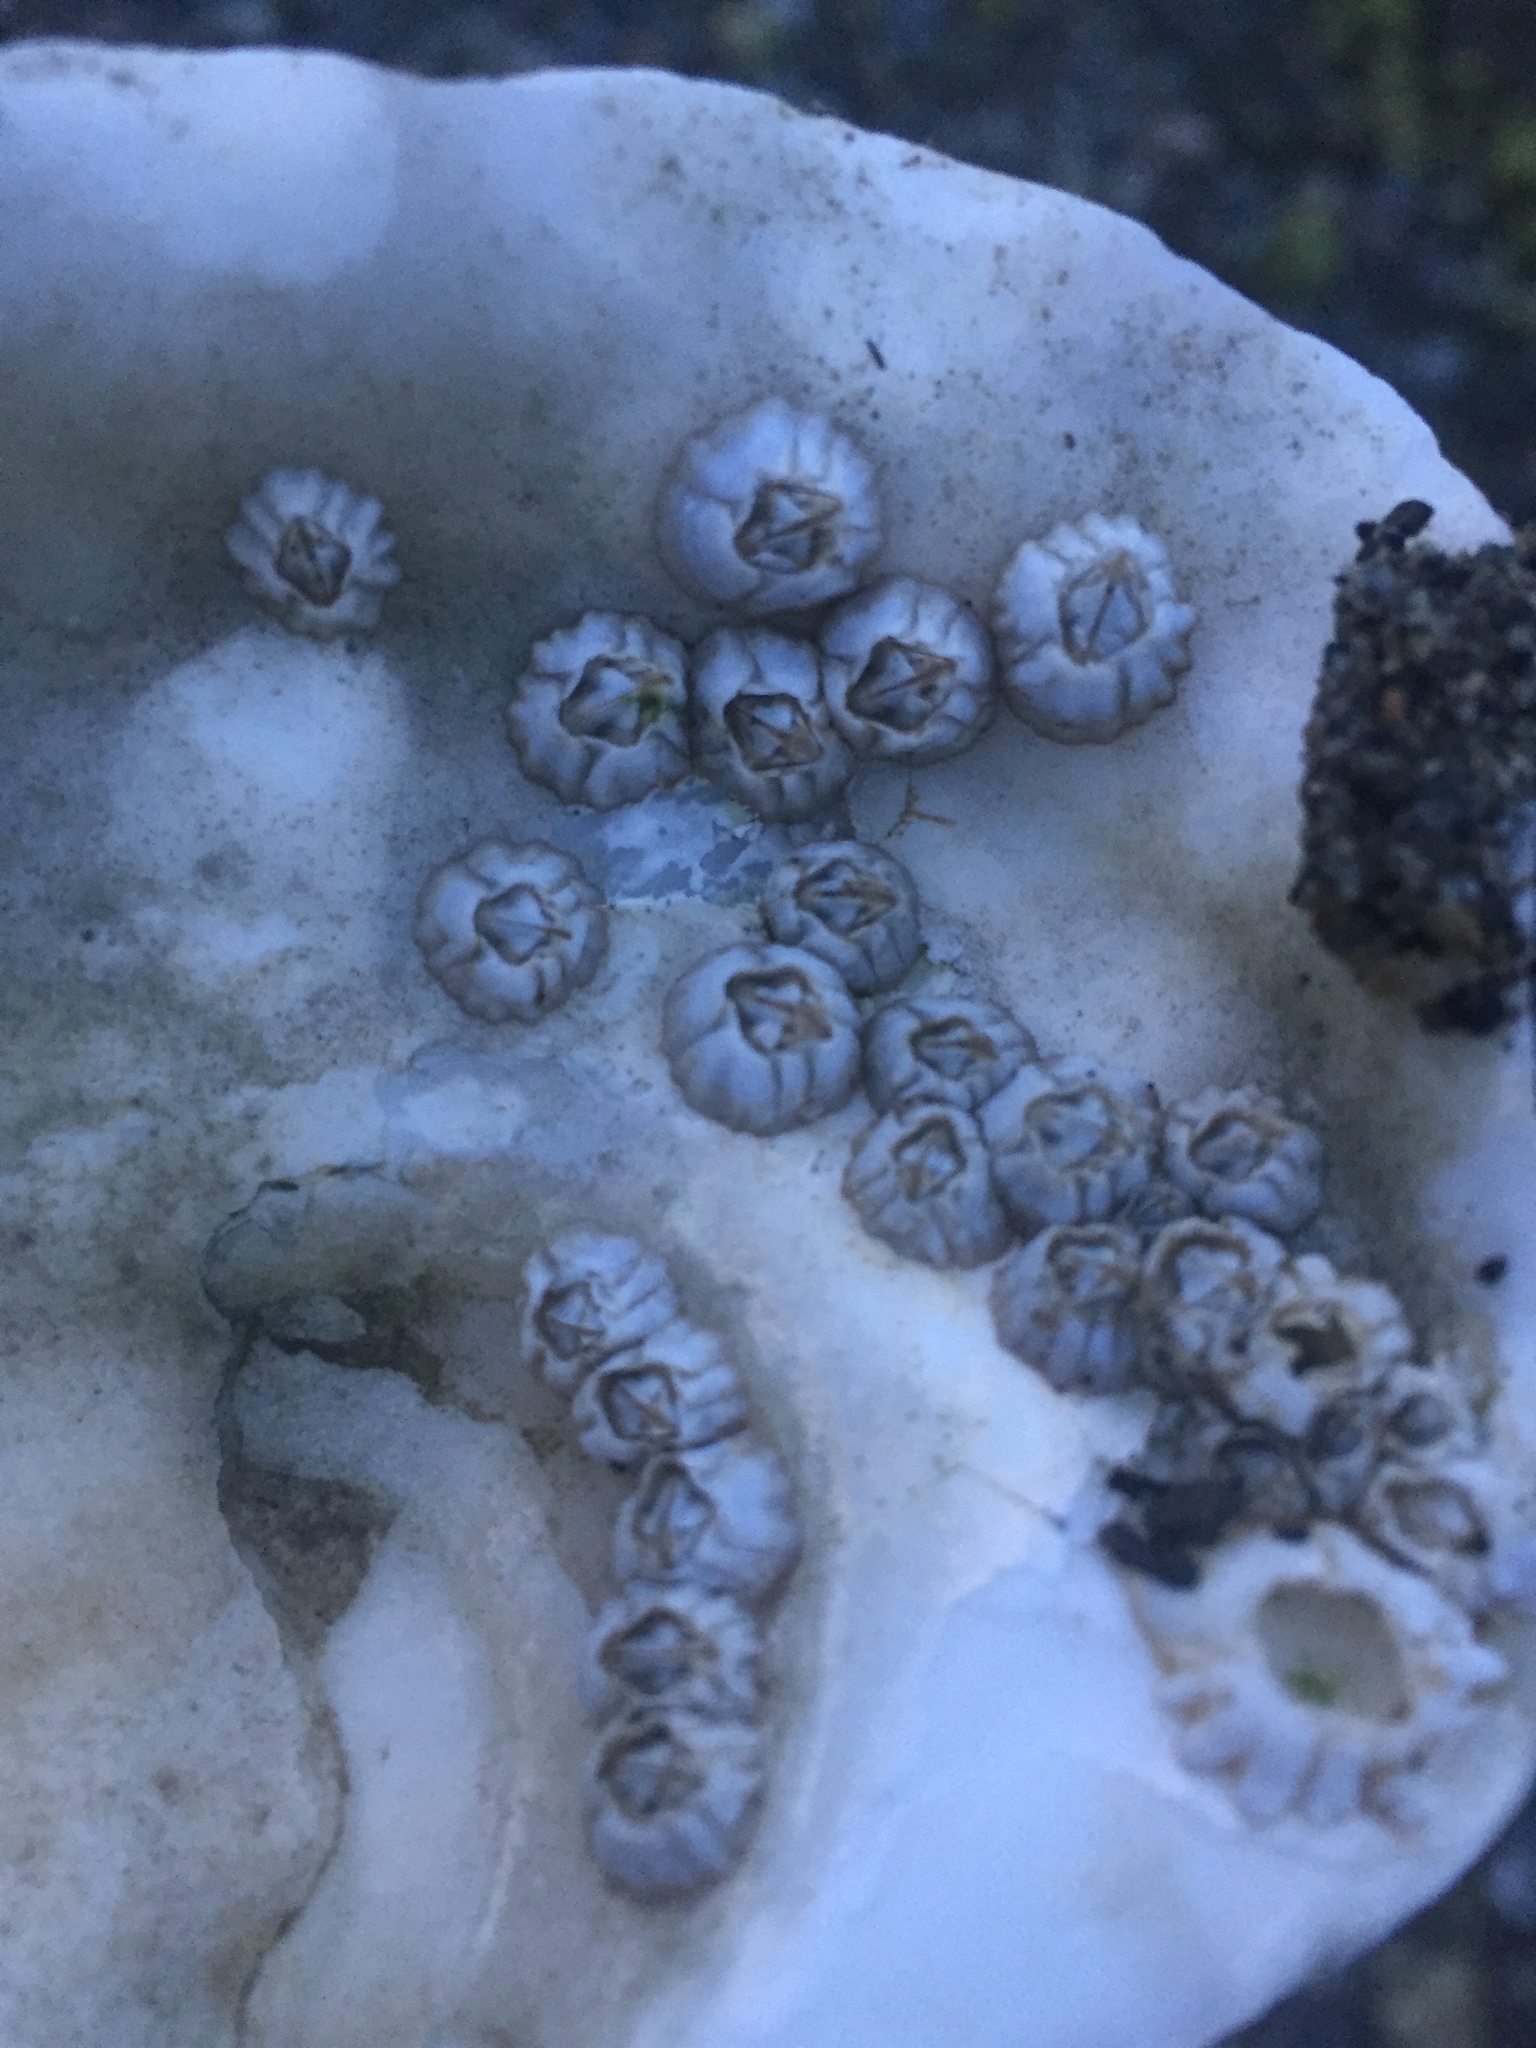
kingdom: Animalia
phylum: Arthropoda
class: Maxillopoda
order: Sessilia
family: Balanidae
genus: Balanus
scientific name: Balanus glandula
